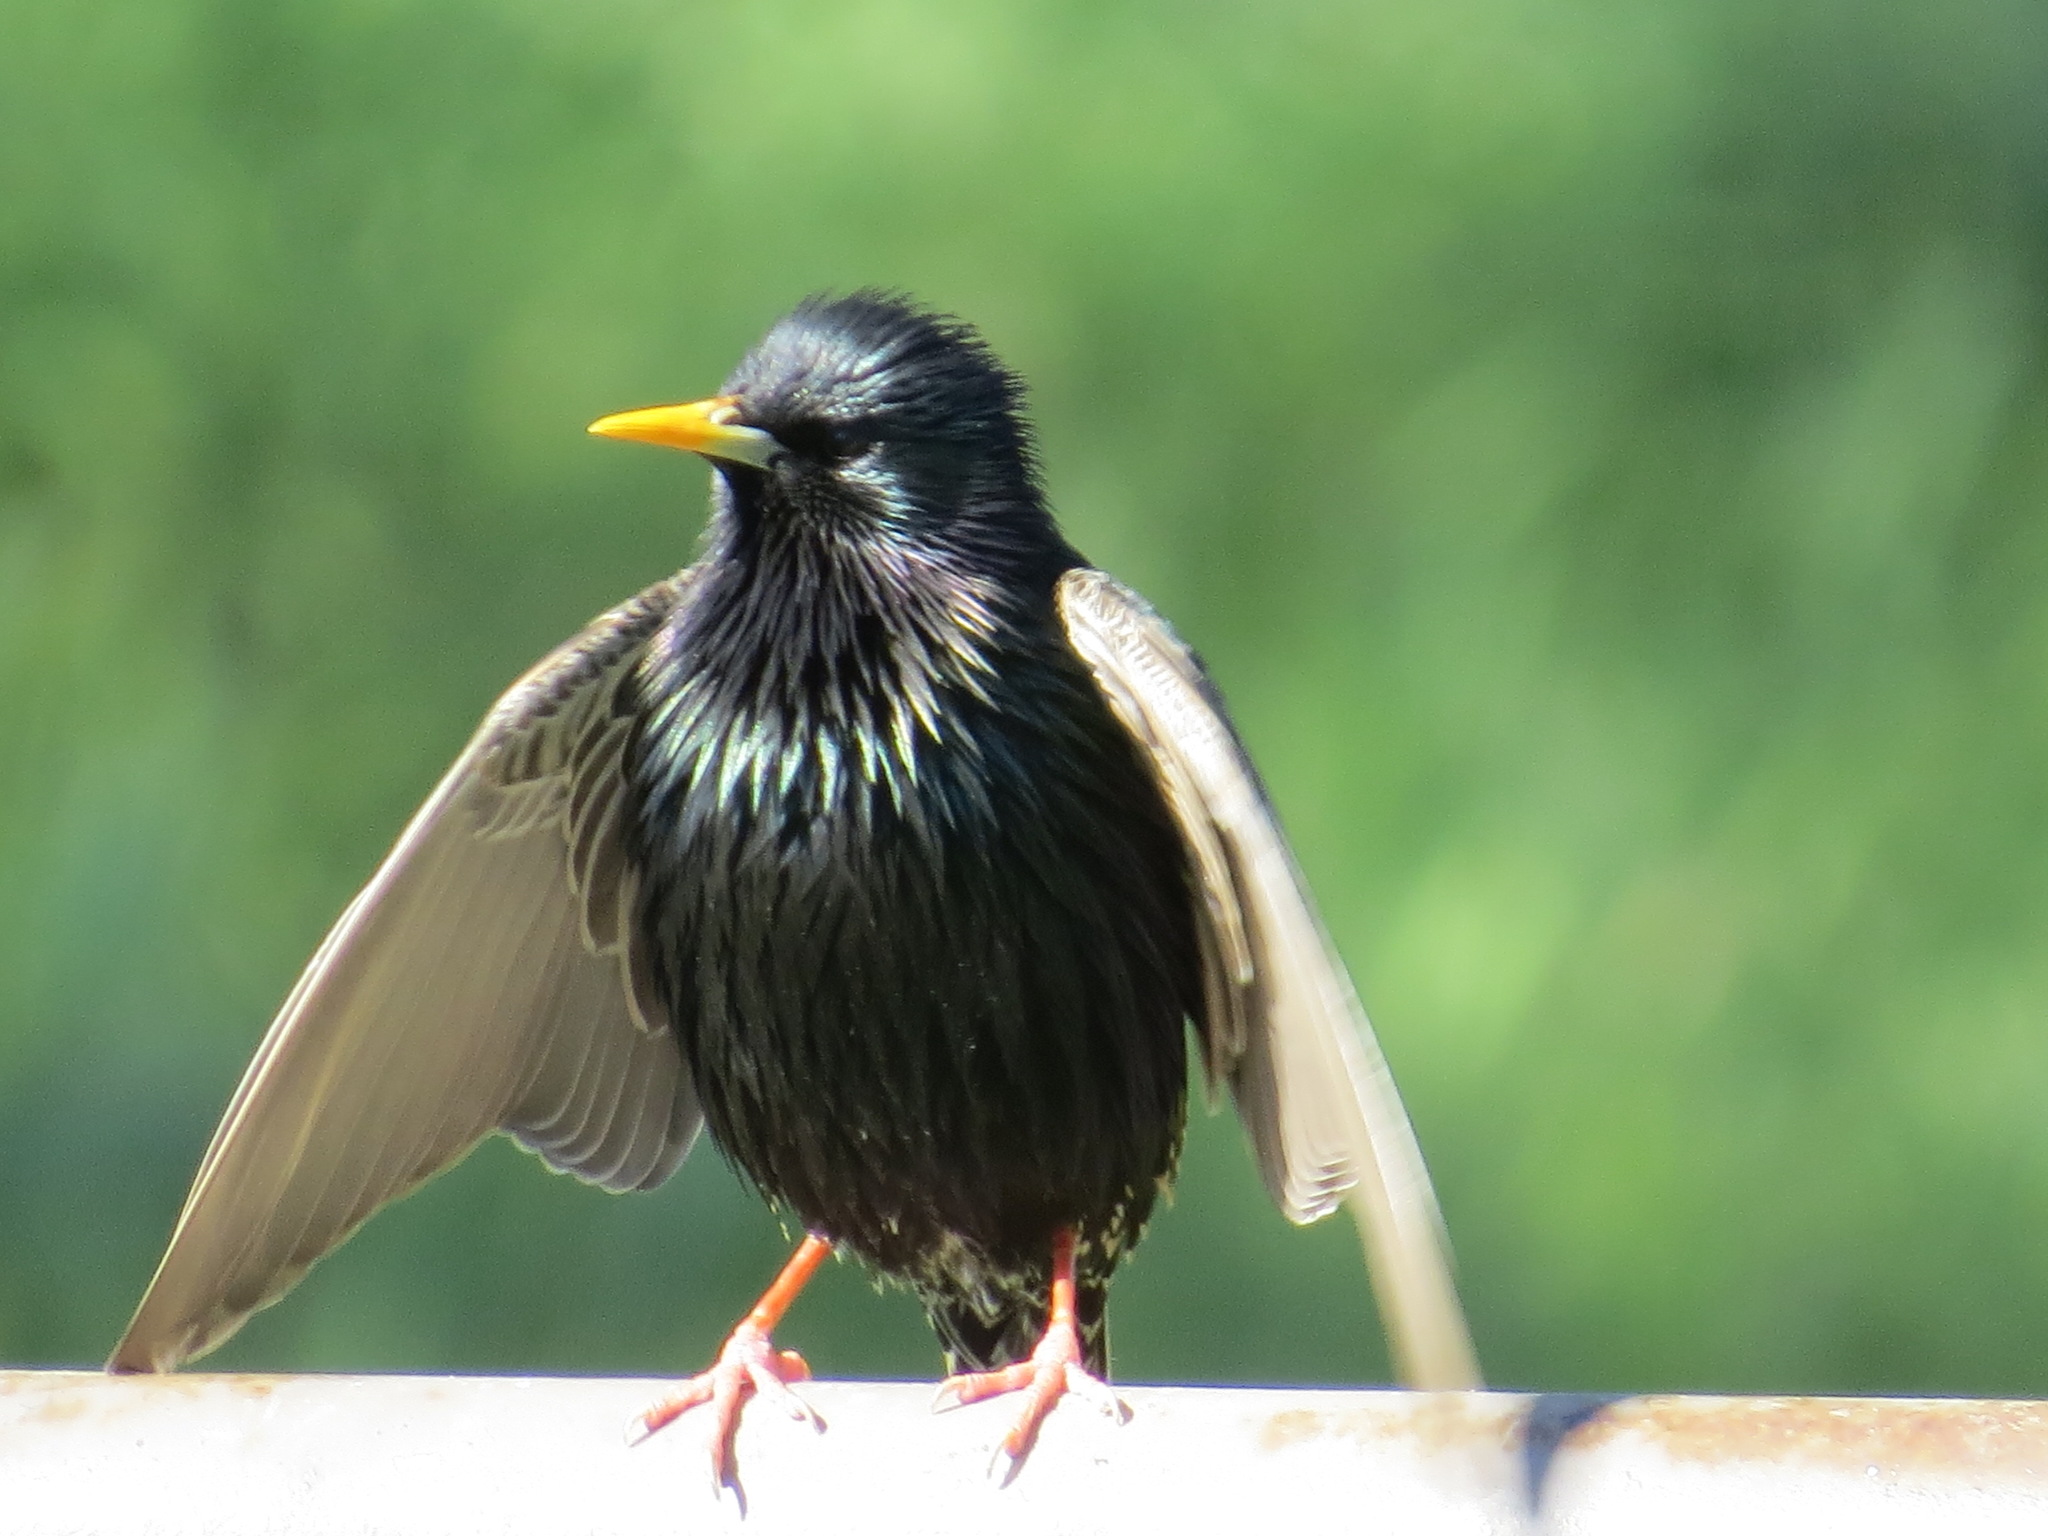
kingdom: Animalia
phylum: Chordata
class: Aves
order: Passeriformes
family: Sturnidae
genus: Sturnus
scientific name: Sturnus vulgaris
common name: Common starling
